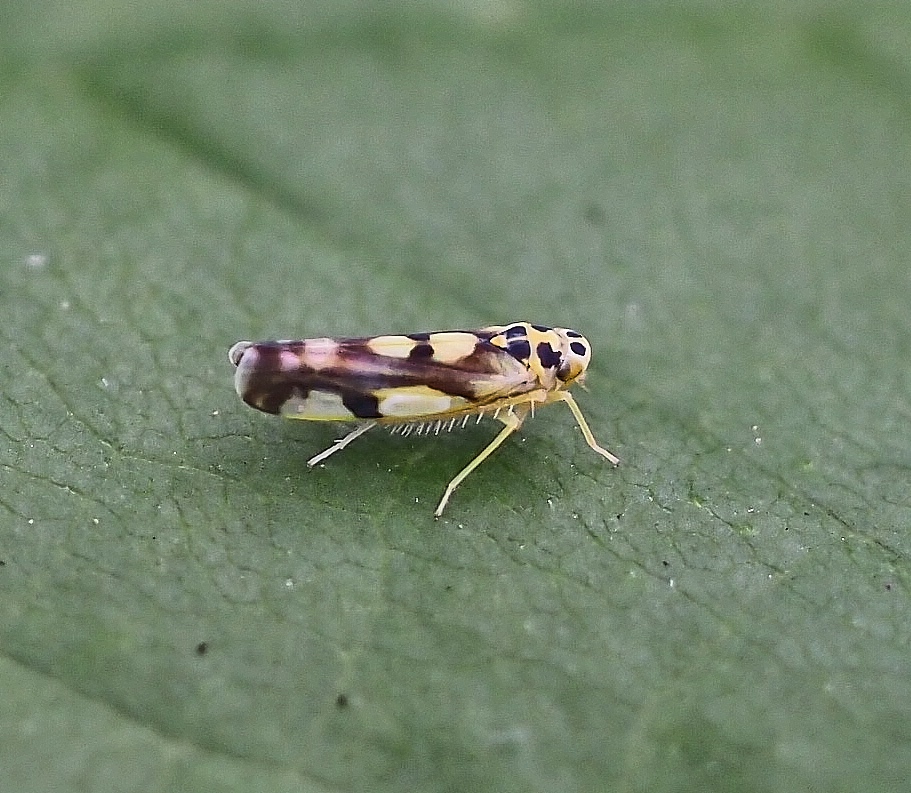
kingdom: Animalia
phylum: Arthropoda
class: Insecta
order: Hemiptera
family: Cicadellidae
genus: Eupteryx
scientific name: Eupteryx aurata
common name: Leafhopper
